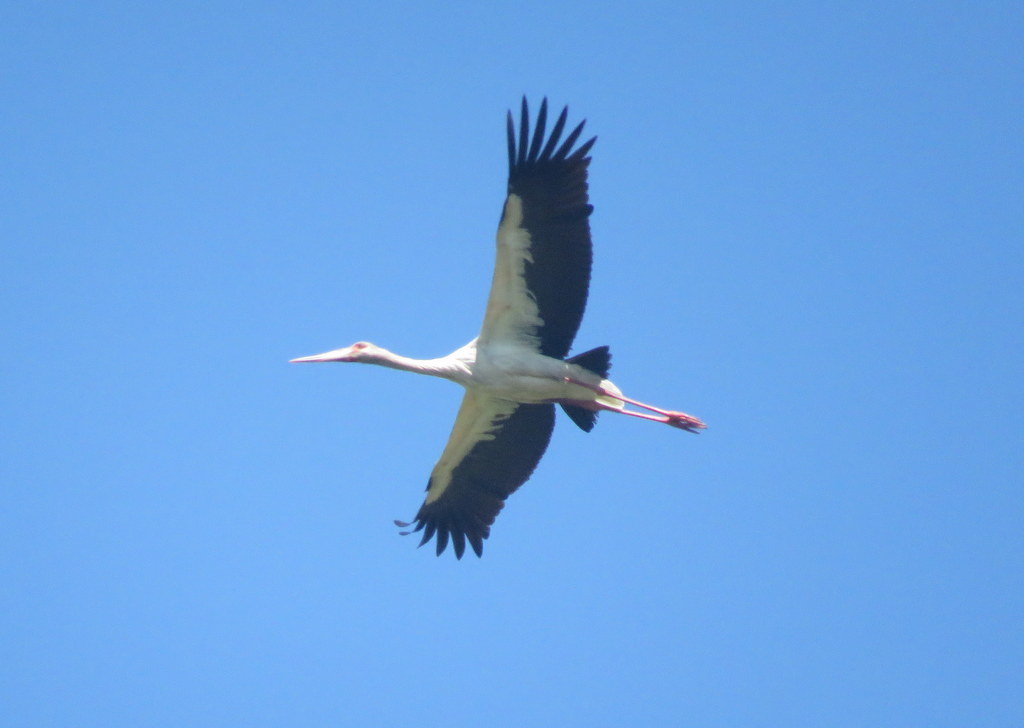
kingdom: Animalia
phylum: Chordata
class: Aves
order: Ciconiiformes
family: Ciconiidae
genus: Ciconia
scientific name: Ciconia maguari
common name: Maguari stork
